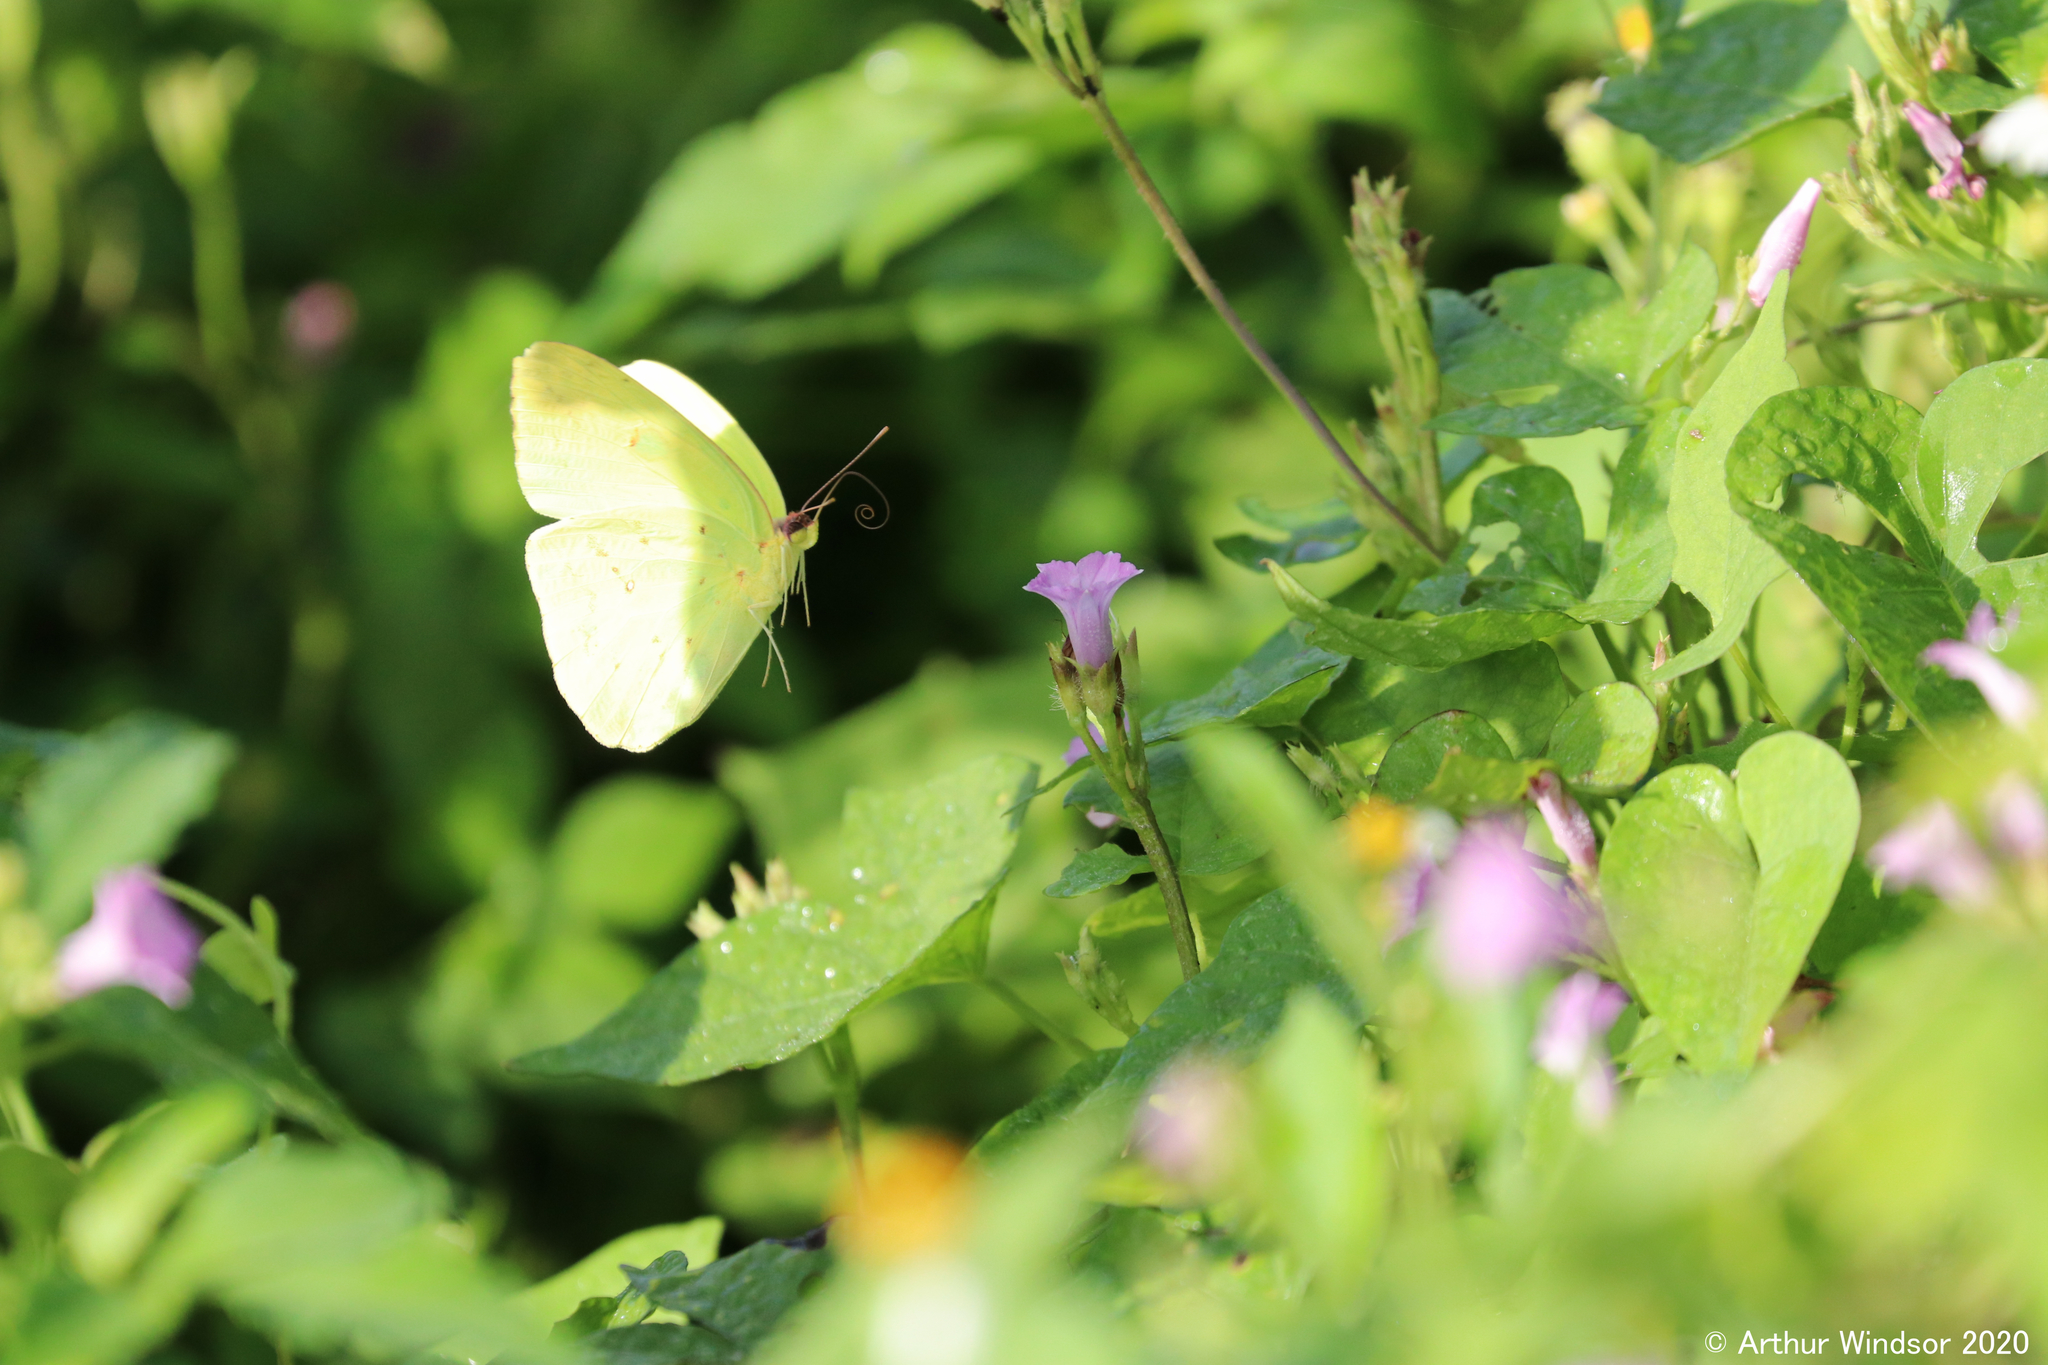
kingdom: Animalia
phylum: Arthropoda
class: Insecta
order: Lepidoptera
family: Pieridae
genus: Phoebis
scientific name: Phoebis sennae
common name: Cloudless sulphur
